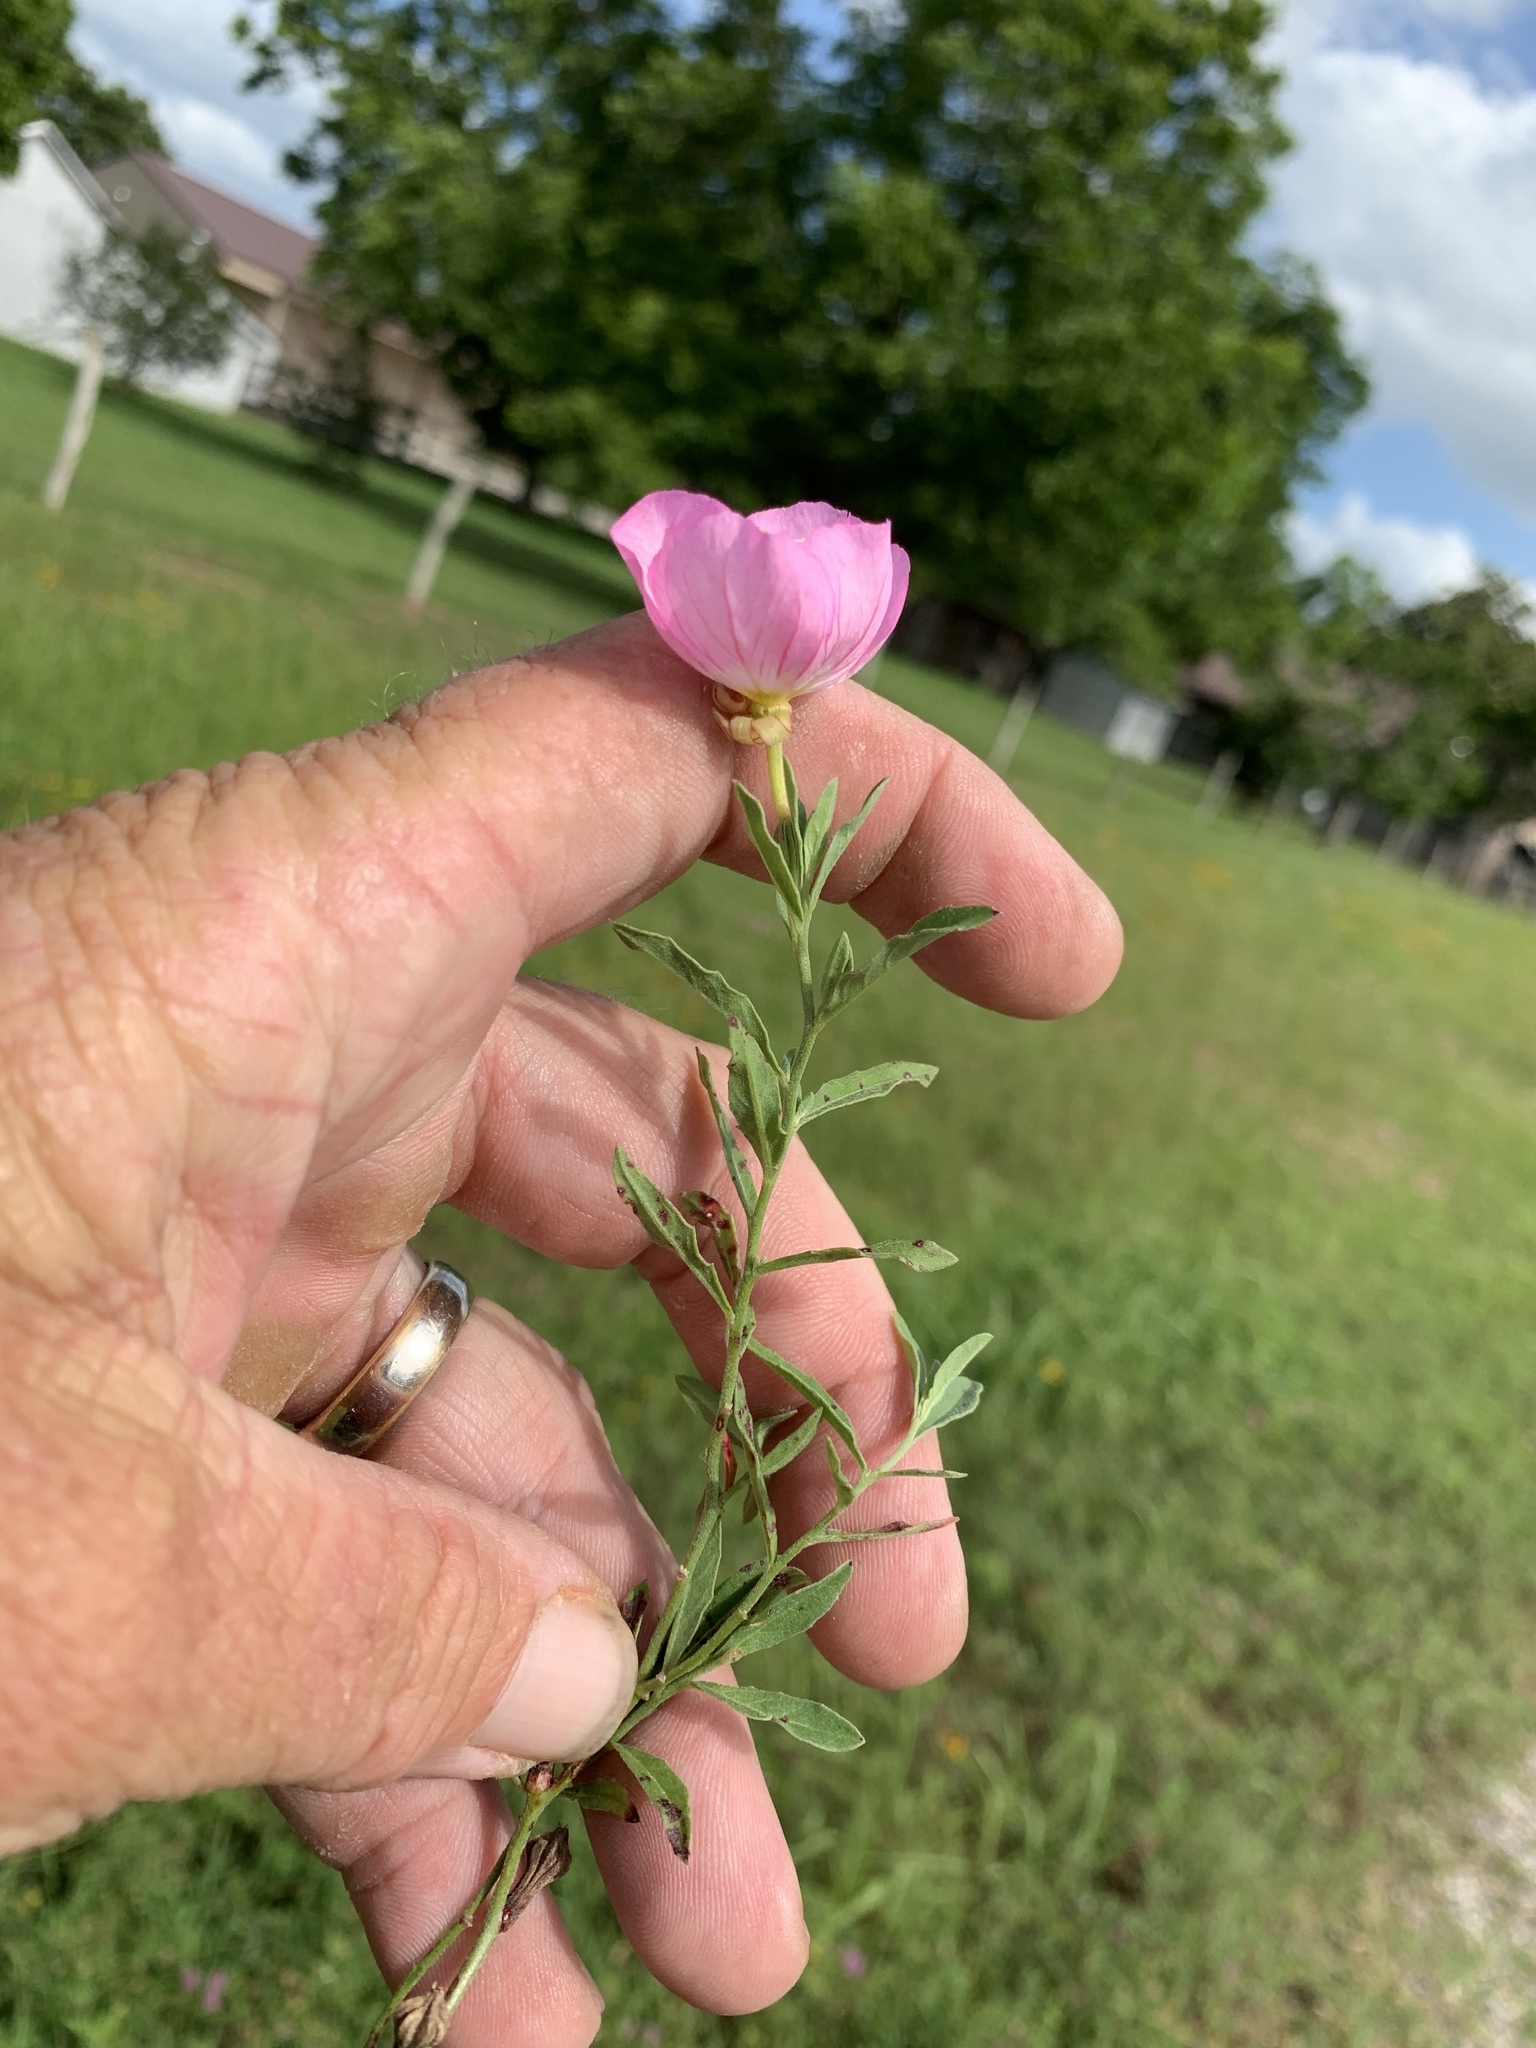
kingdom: Plantae
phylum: Tracheophyta
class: Magnoliopsida
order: Myrtales
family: Onagraceae
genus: Oenothera
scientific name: Oenothera speciosa
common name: White evening-primrose
